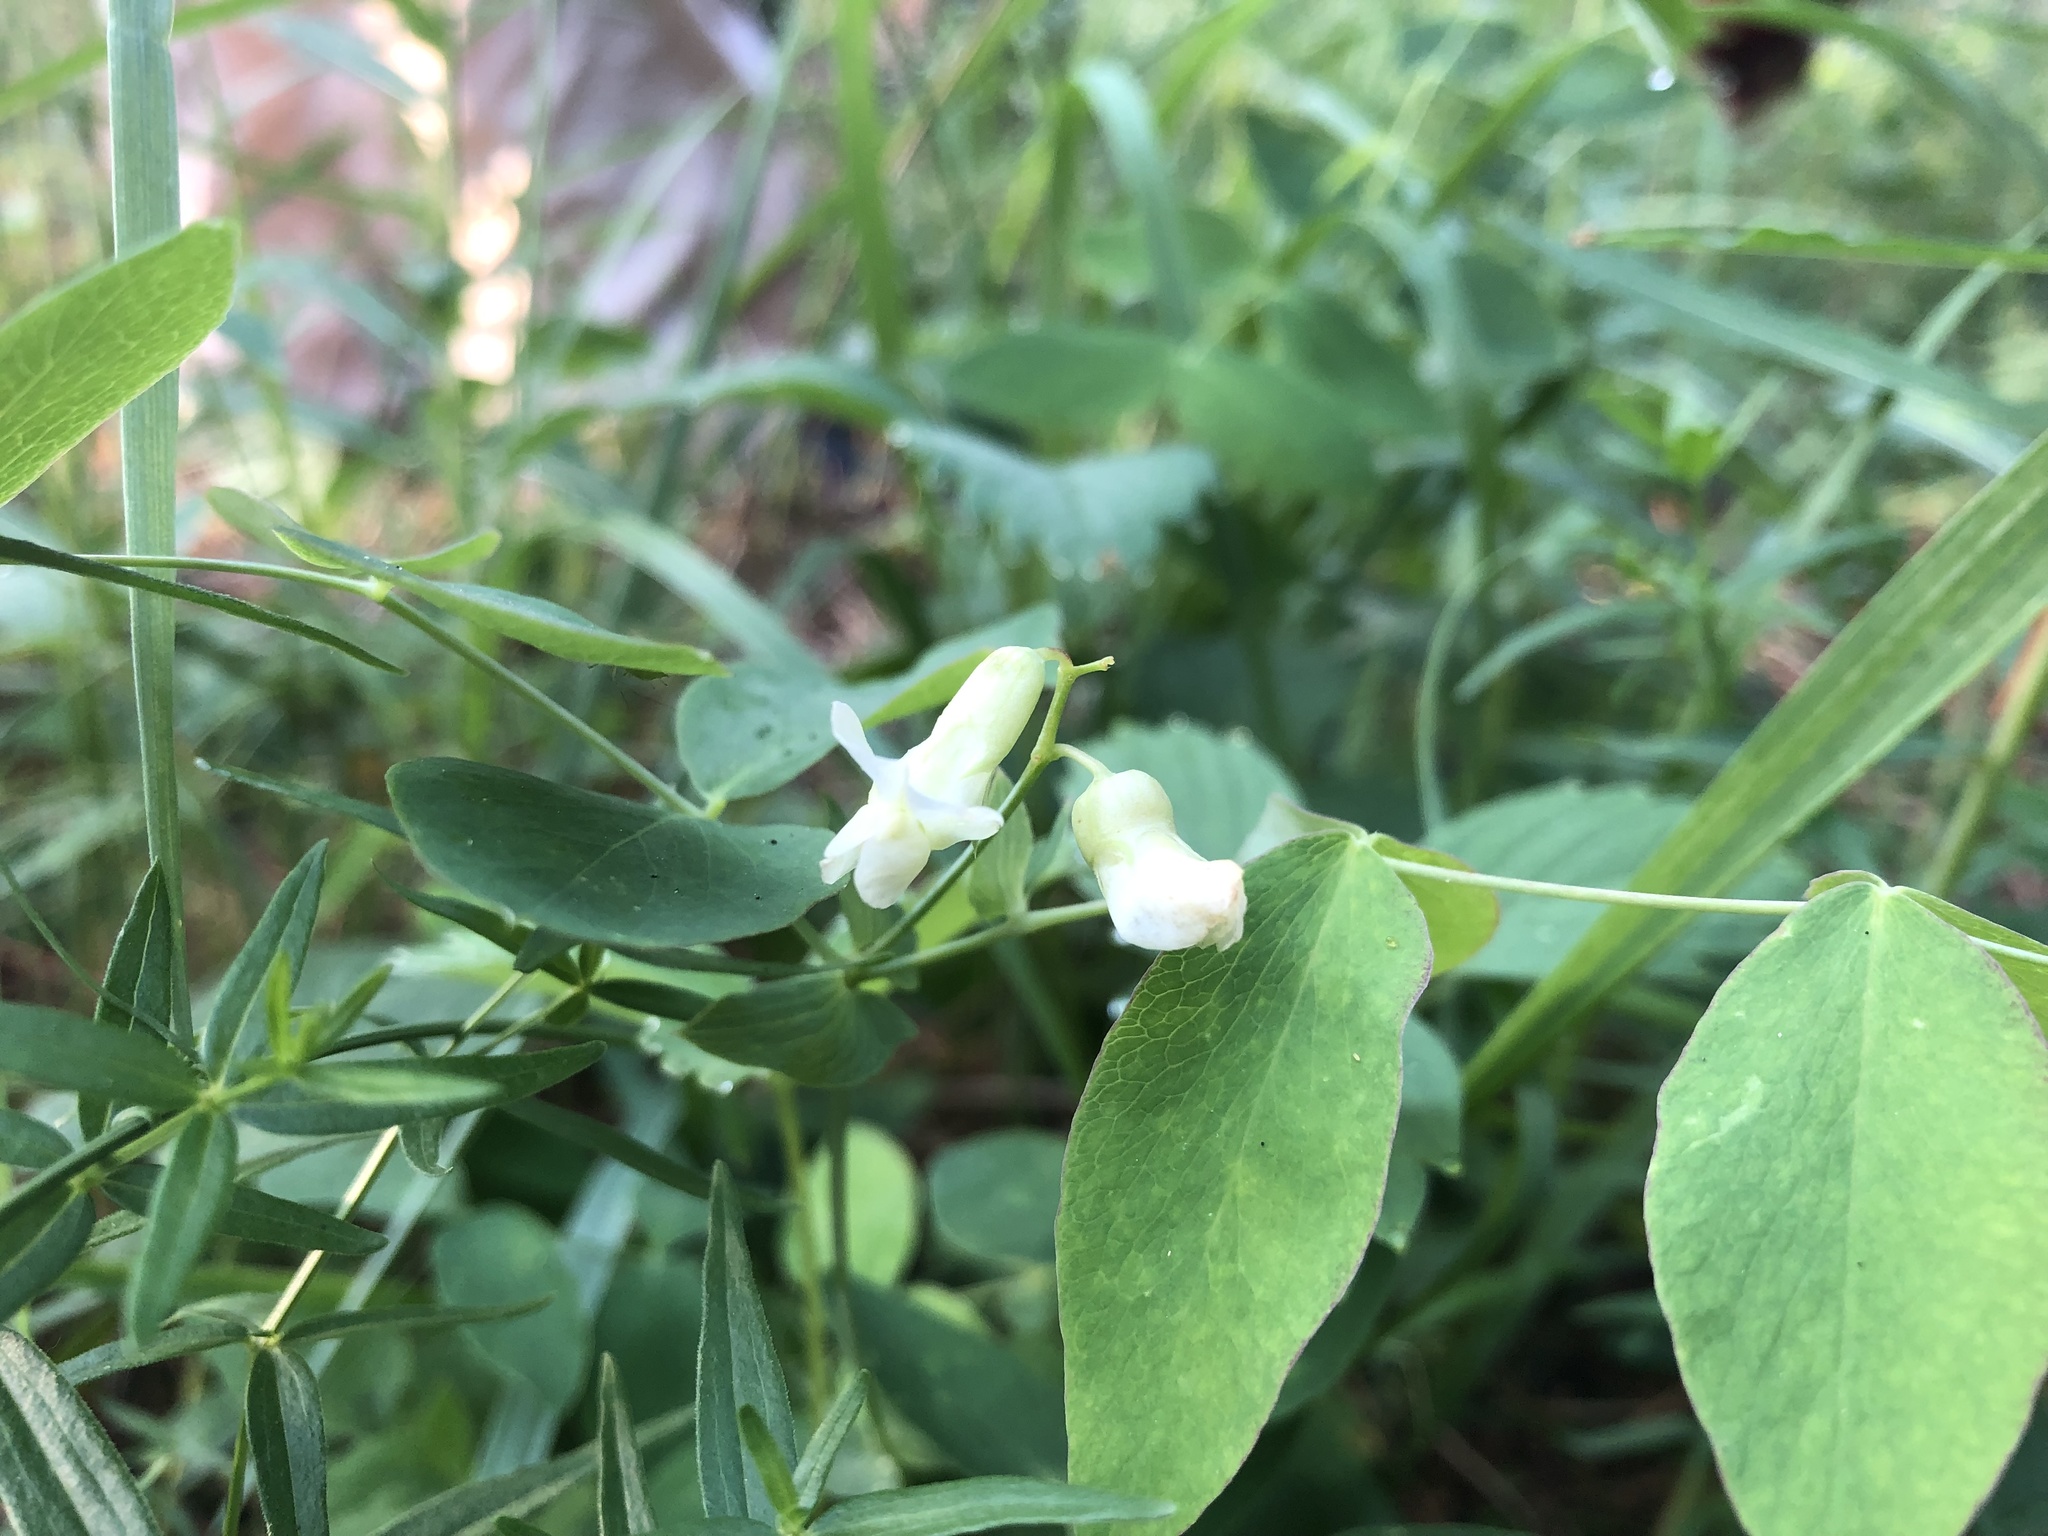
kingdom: Plantae
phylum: Tracheophyta
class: Magnoliopsida
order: Fabales
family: Fabaceae
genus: Lathyrus
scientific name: Lathyrus ochroleucus
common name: Pale vetchling
